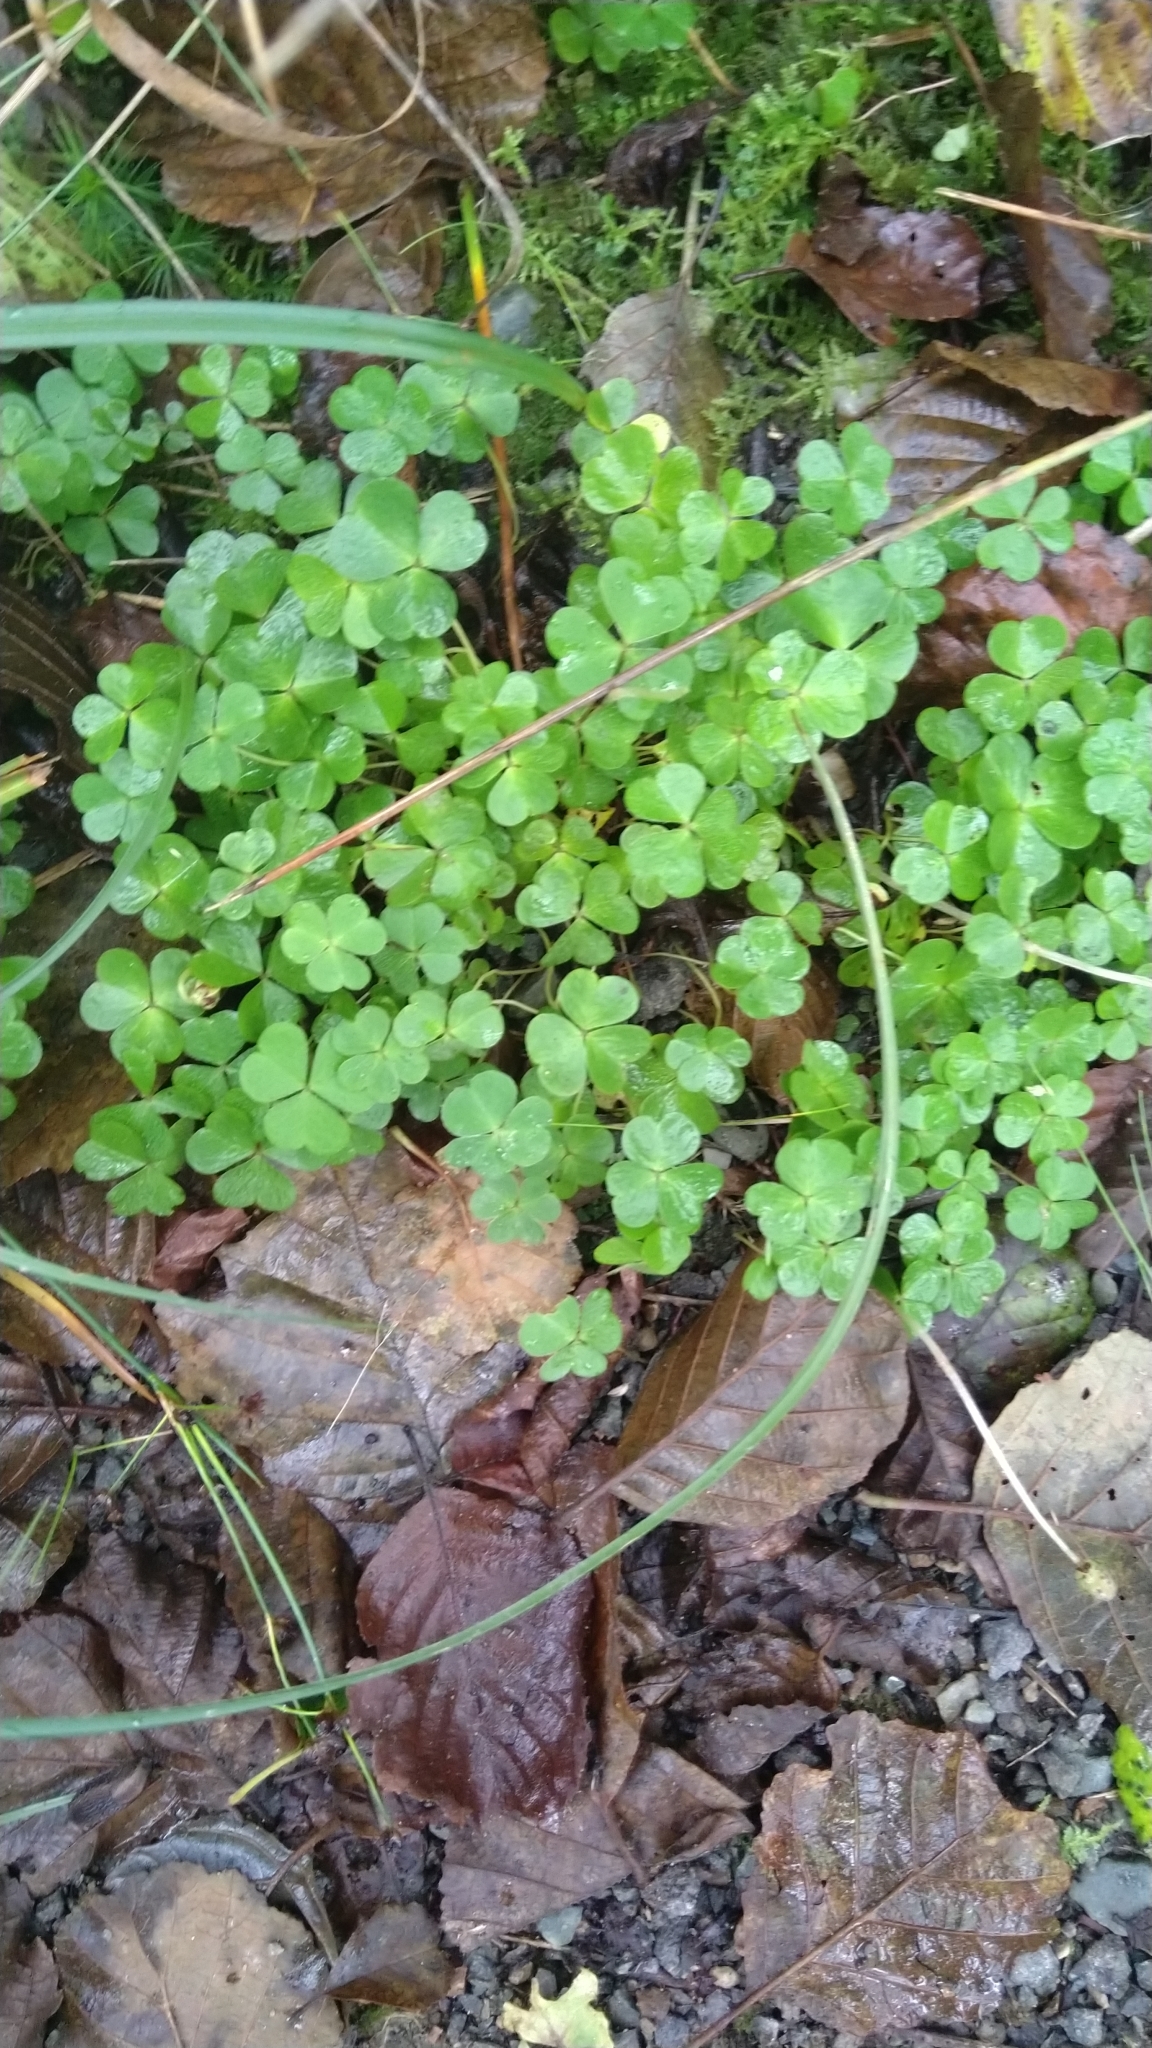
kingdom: Plantae
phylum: Tracheophyta
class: Magnoliopsida
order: Oxalidales
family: Oxalidaceae
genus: Oxalis
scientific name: Oxalis acetosella
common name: Wood-sorrel
